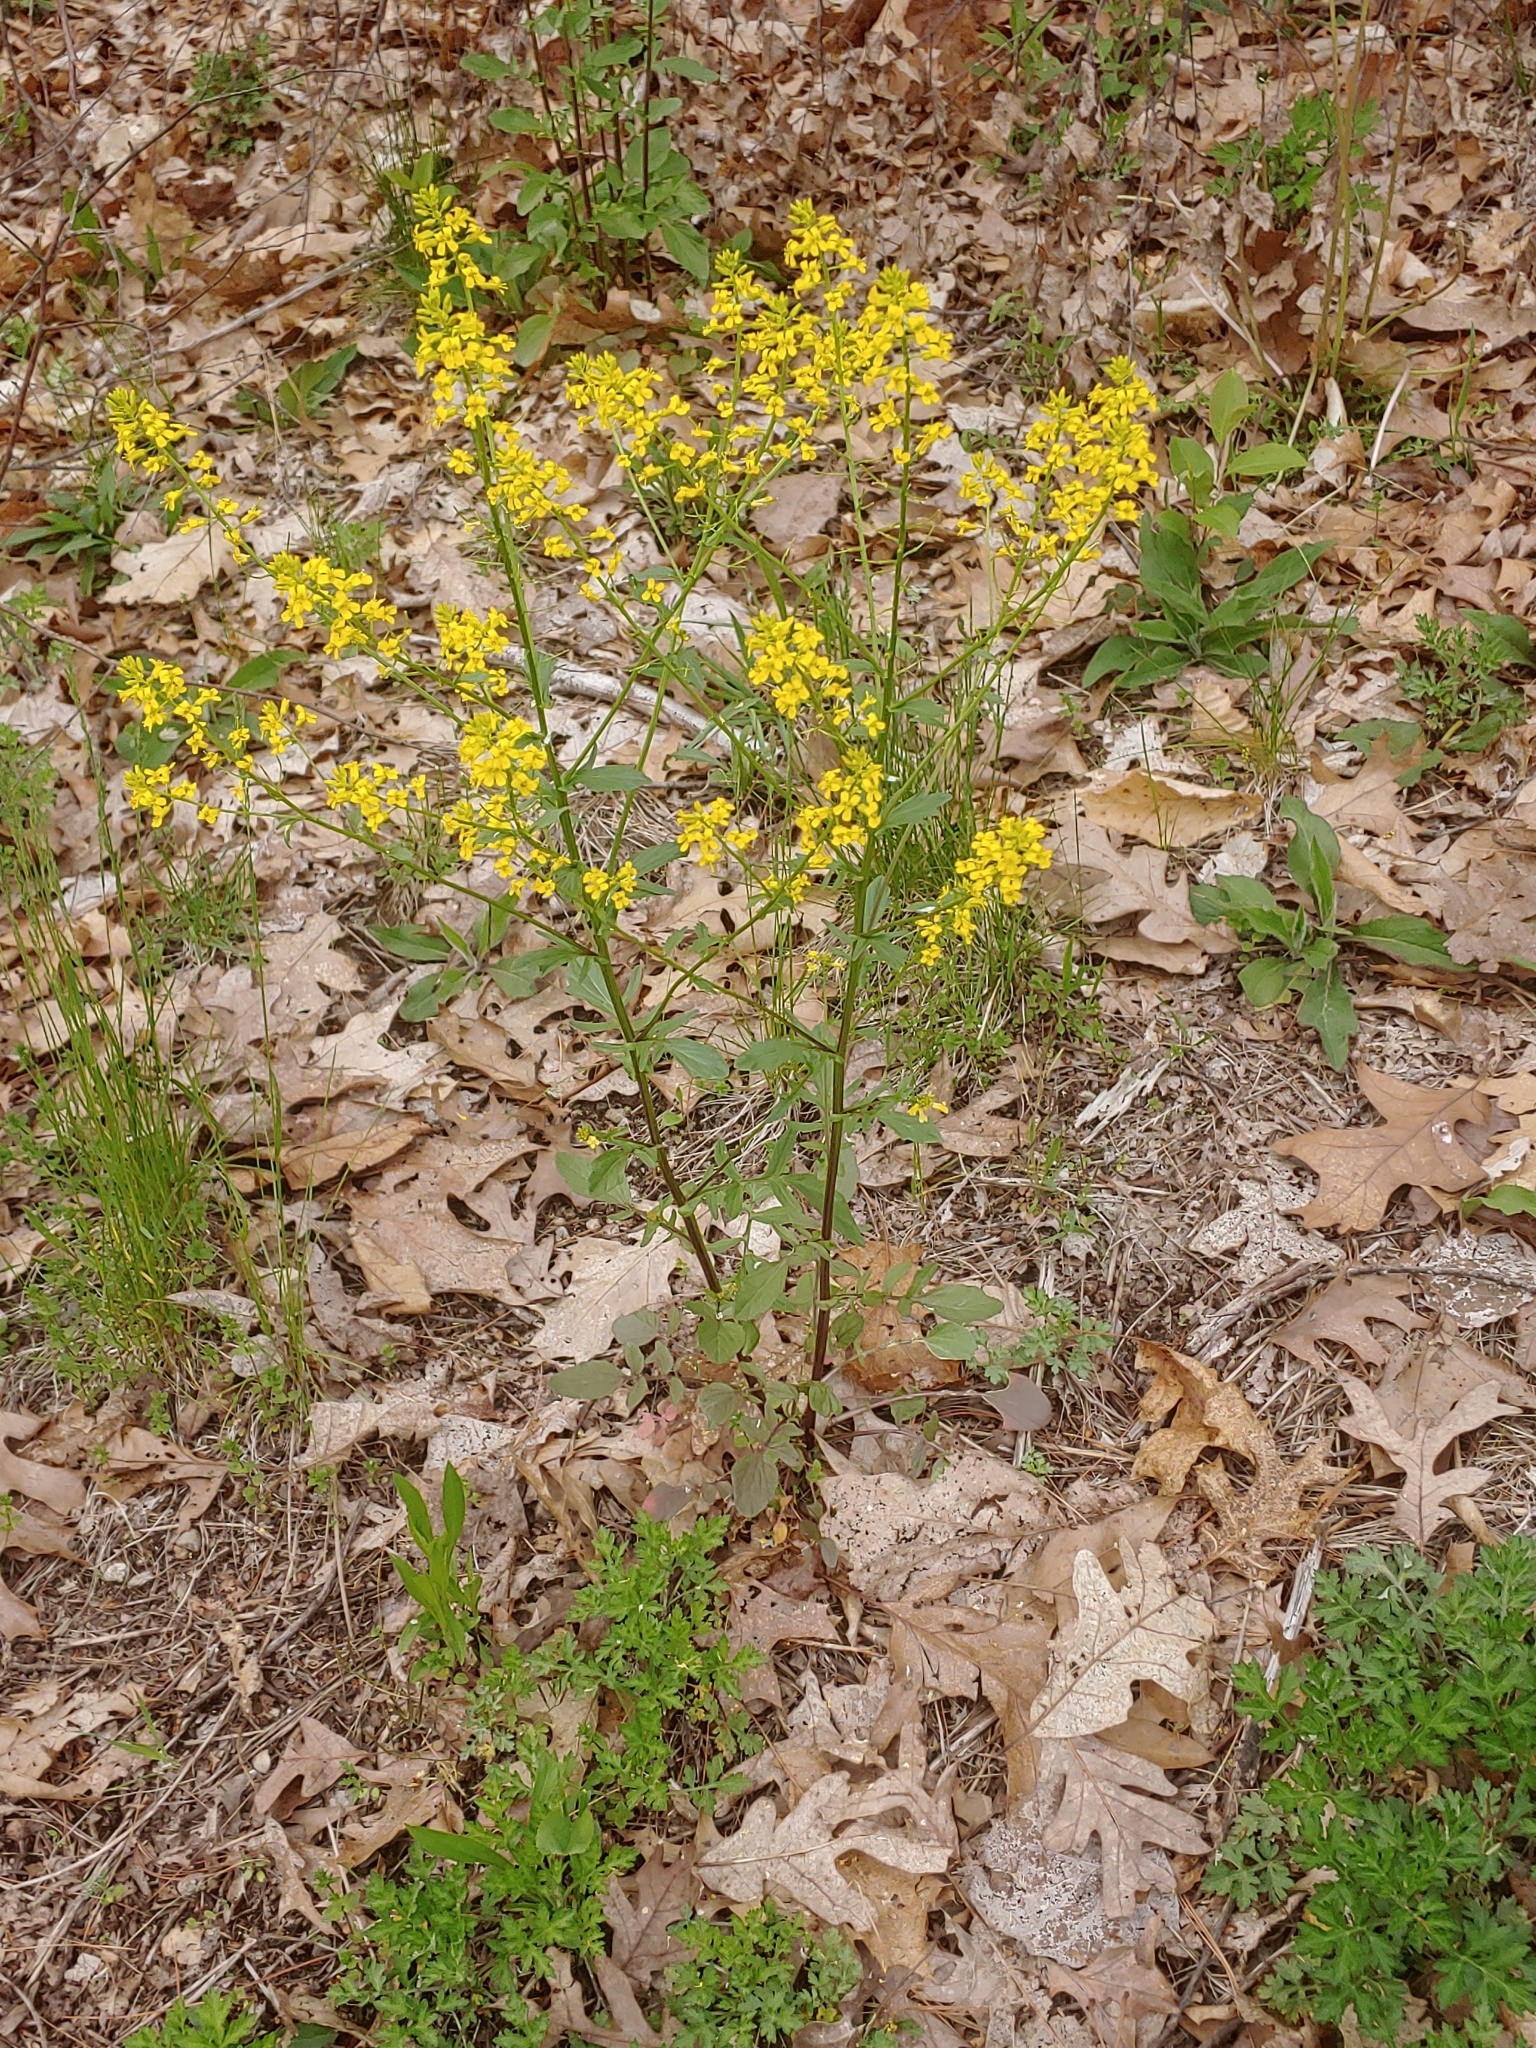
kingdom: Plantae
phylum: Tracheophyta
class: Magnoliopsida
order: Brassicales
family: Brassicaceae
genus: Barbarea
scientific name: Barbarea vulgaris
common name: Cressy-greens
